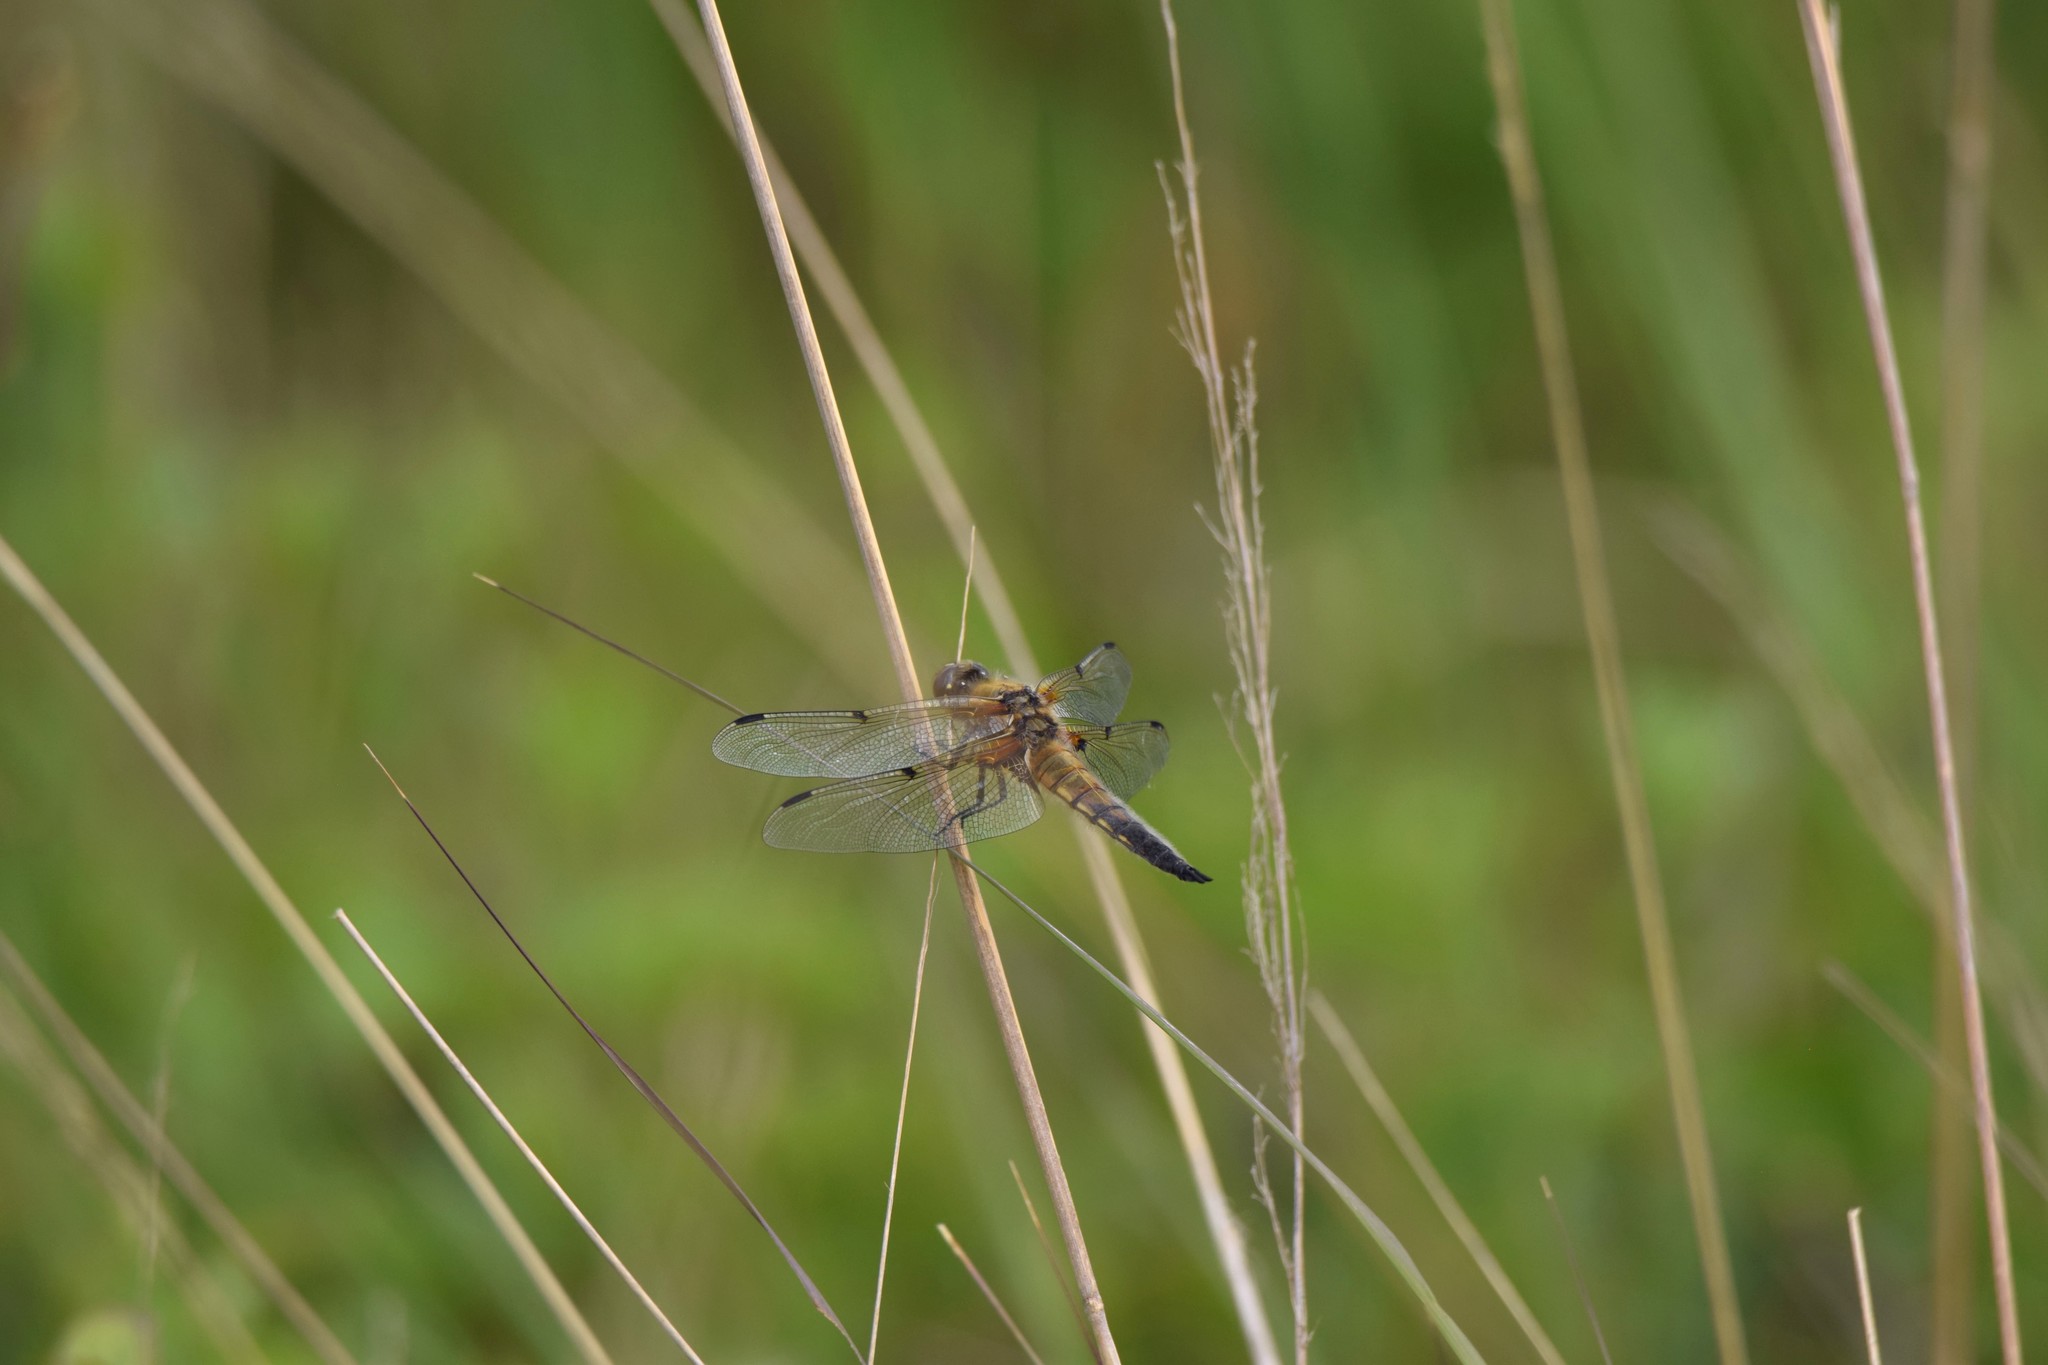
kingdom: Animalia
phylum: Arthropoda
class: Insecta
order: Odonata
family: Libellulidae
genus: Libellula
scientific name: Libellula quadrimaculata
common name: Four-spotted chaser
